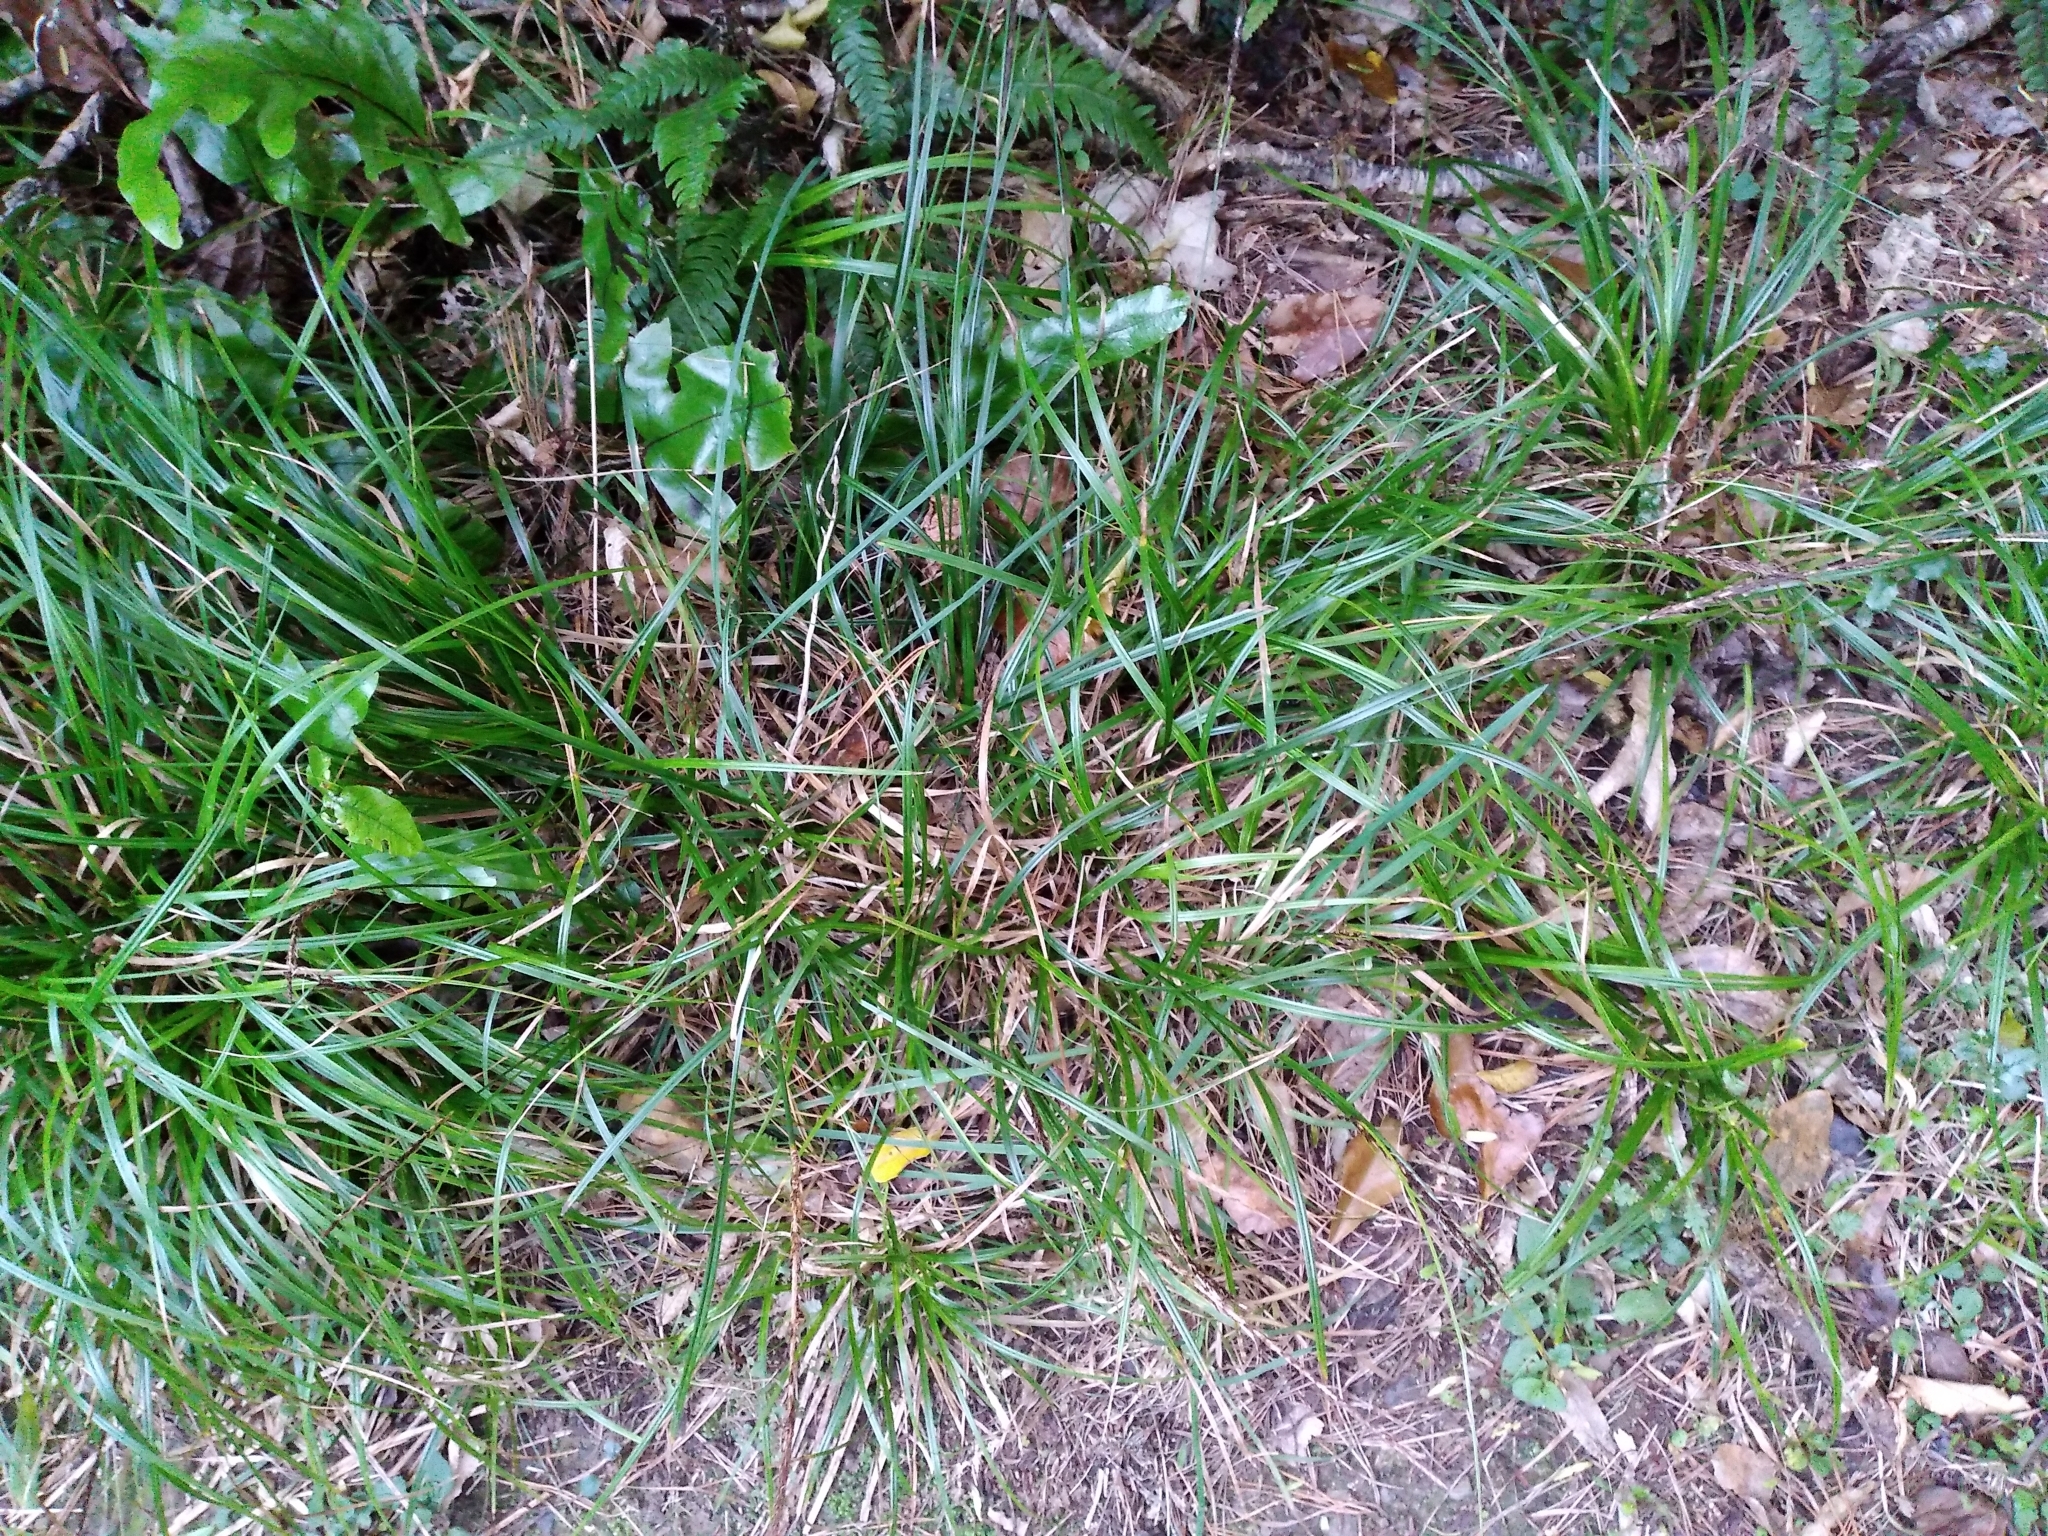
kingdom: Plantae
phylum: Tracheophyta
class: Liliopsida
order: Poales
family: Cyperaceae
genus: Carex
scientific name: Carex uncinata
